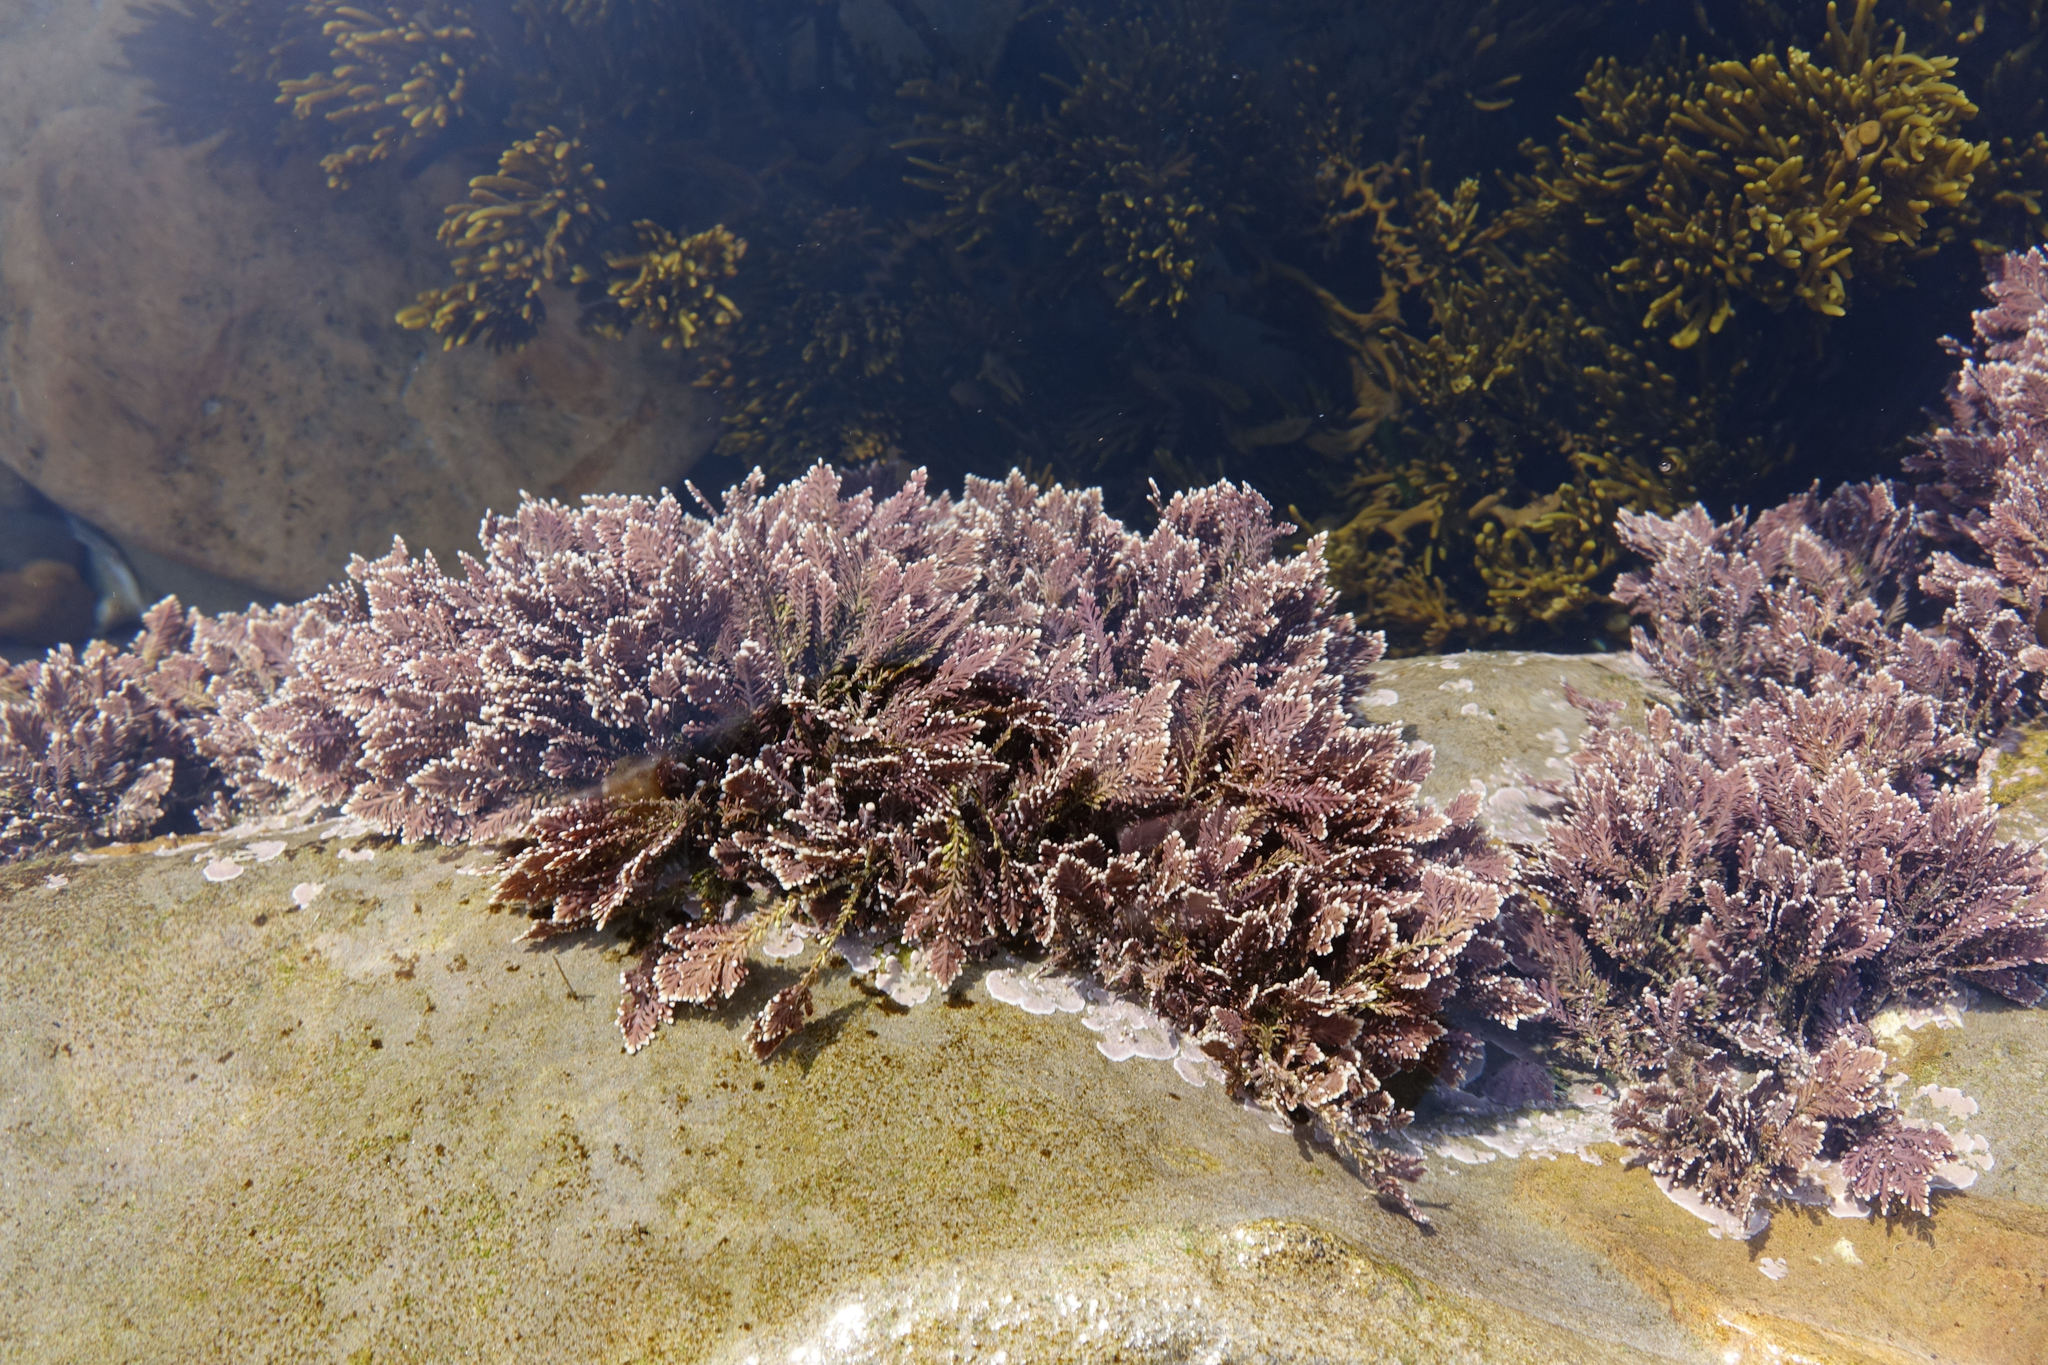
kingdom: Plantae
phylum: Rhodophyta
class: Florideophyceae
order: Corallinales
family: Corallinaceae
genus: Corallina
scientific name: Corallina officinalis
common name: Coral weed
